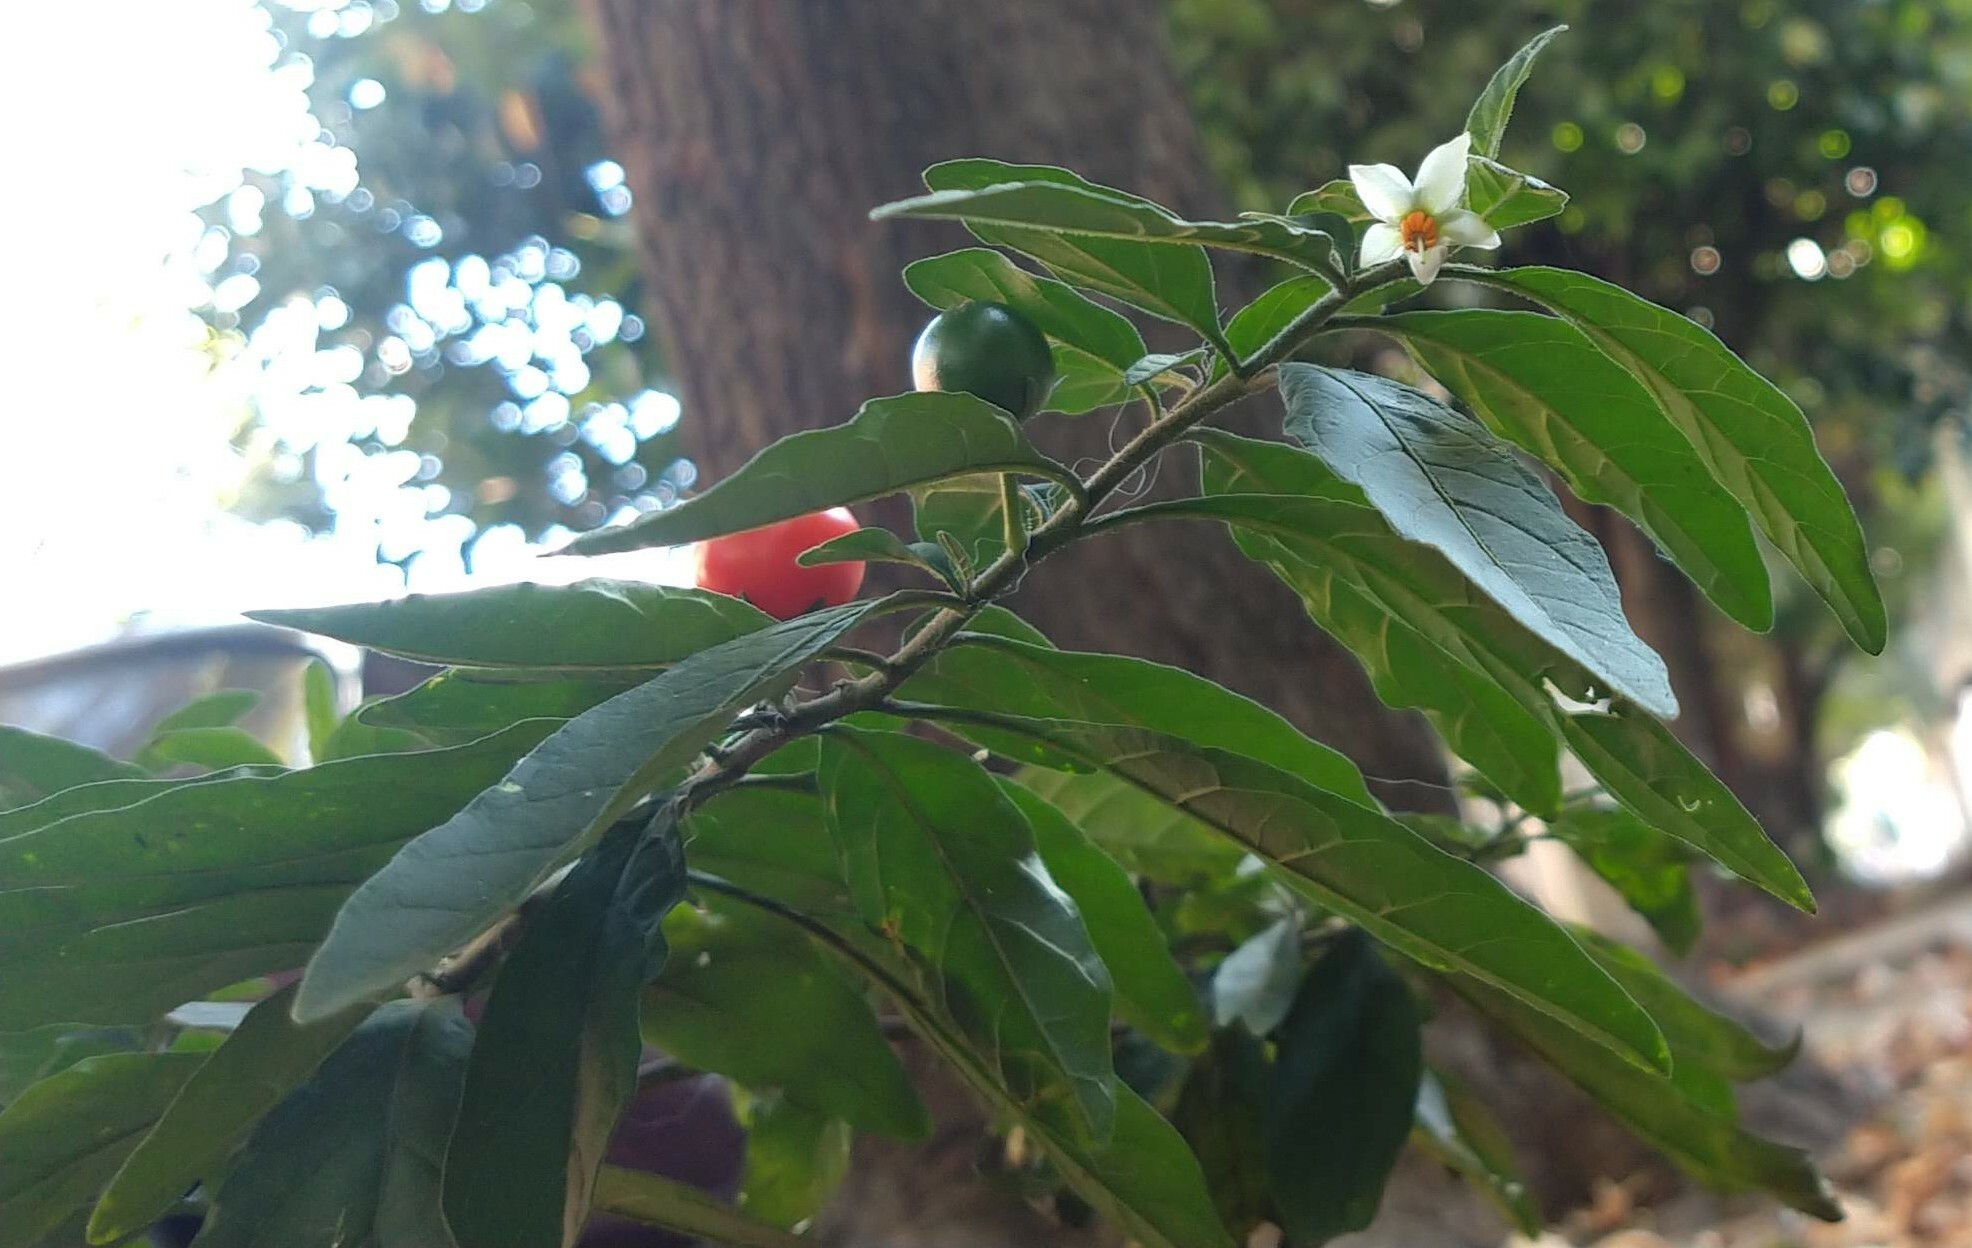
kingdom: Plantae
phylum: Tracheophyta
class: Magnoliopsida
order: Solanales
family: Solanaceae
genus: Solanum
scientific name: Solanum pseudocapsicum
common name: Jerusalem cherry
